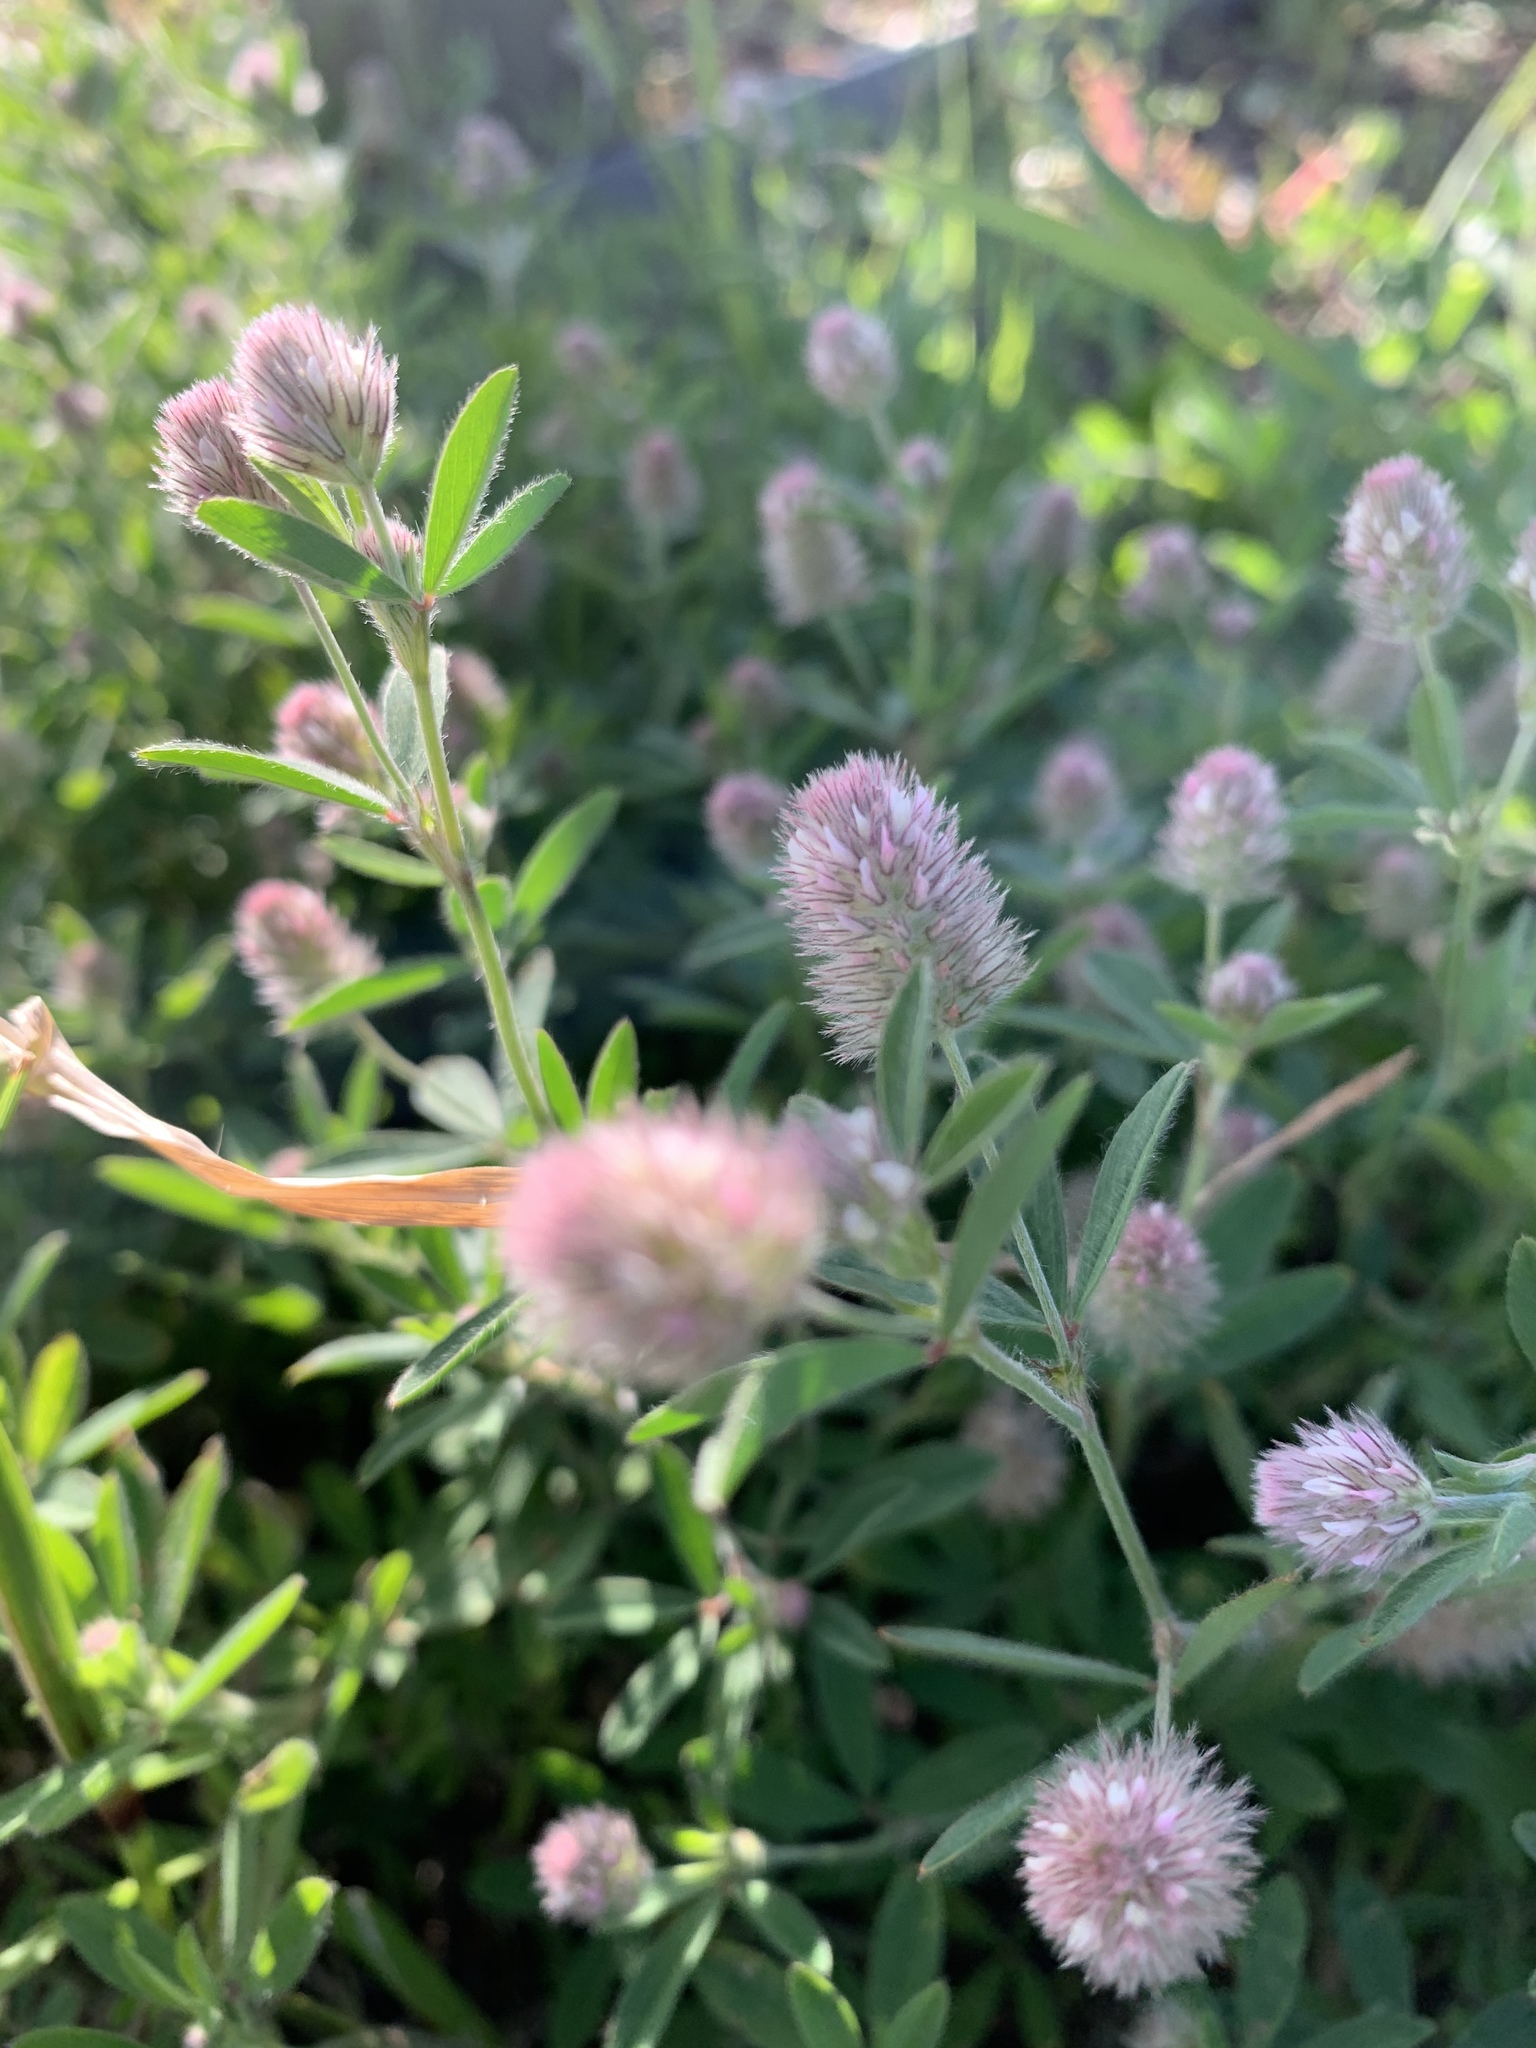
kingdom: Plantae
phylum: Tracheophyta
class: Magnoliopsida
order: Fabales
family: Fabaceae
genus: Trifolium
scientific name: Trifolium arvense
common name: Hare's-foot clover
